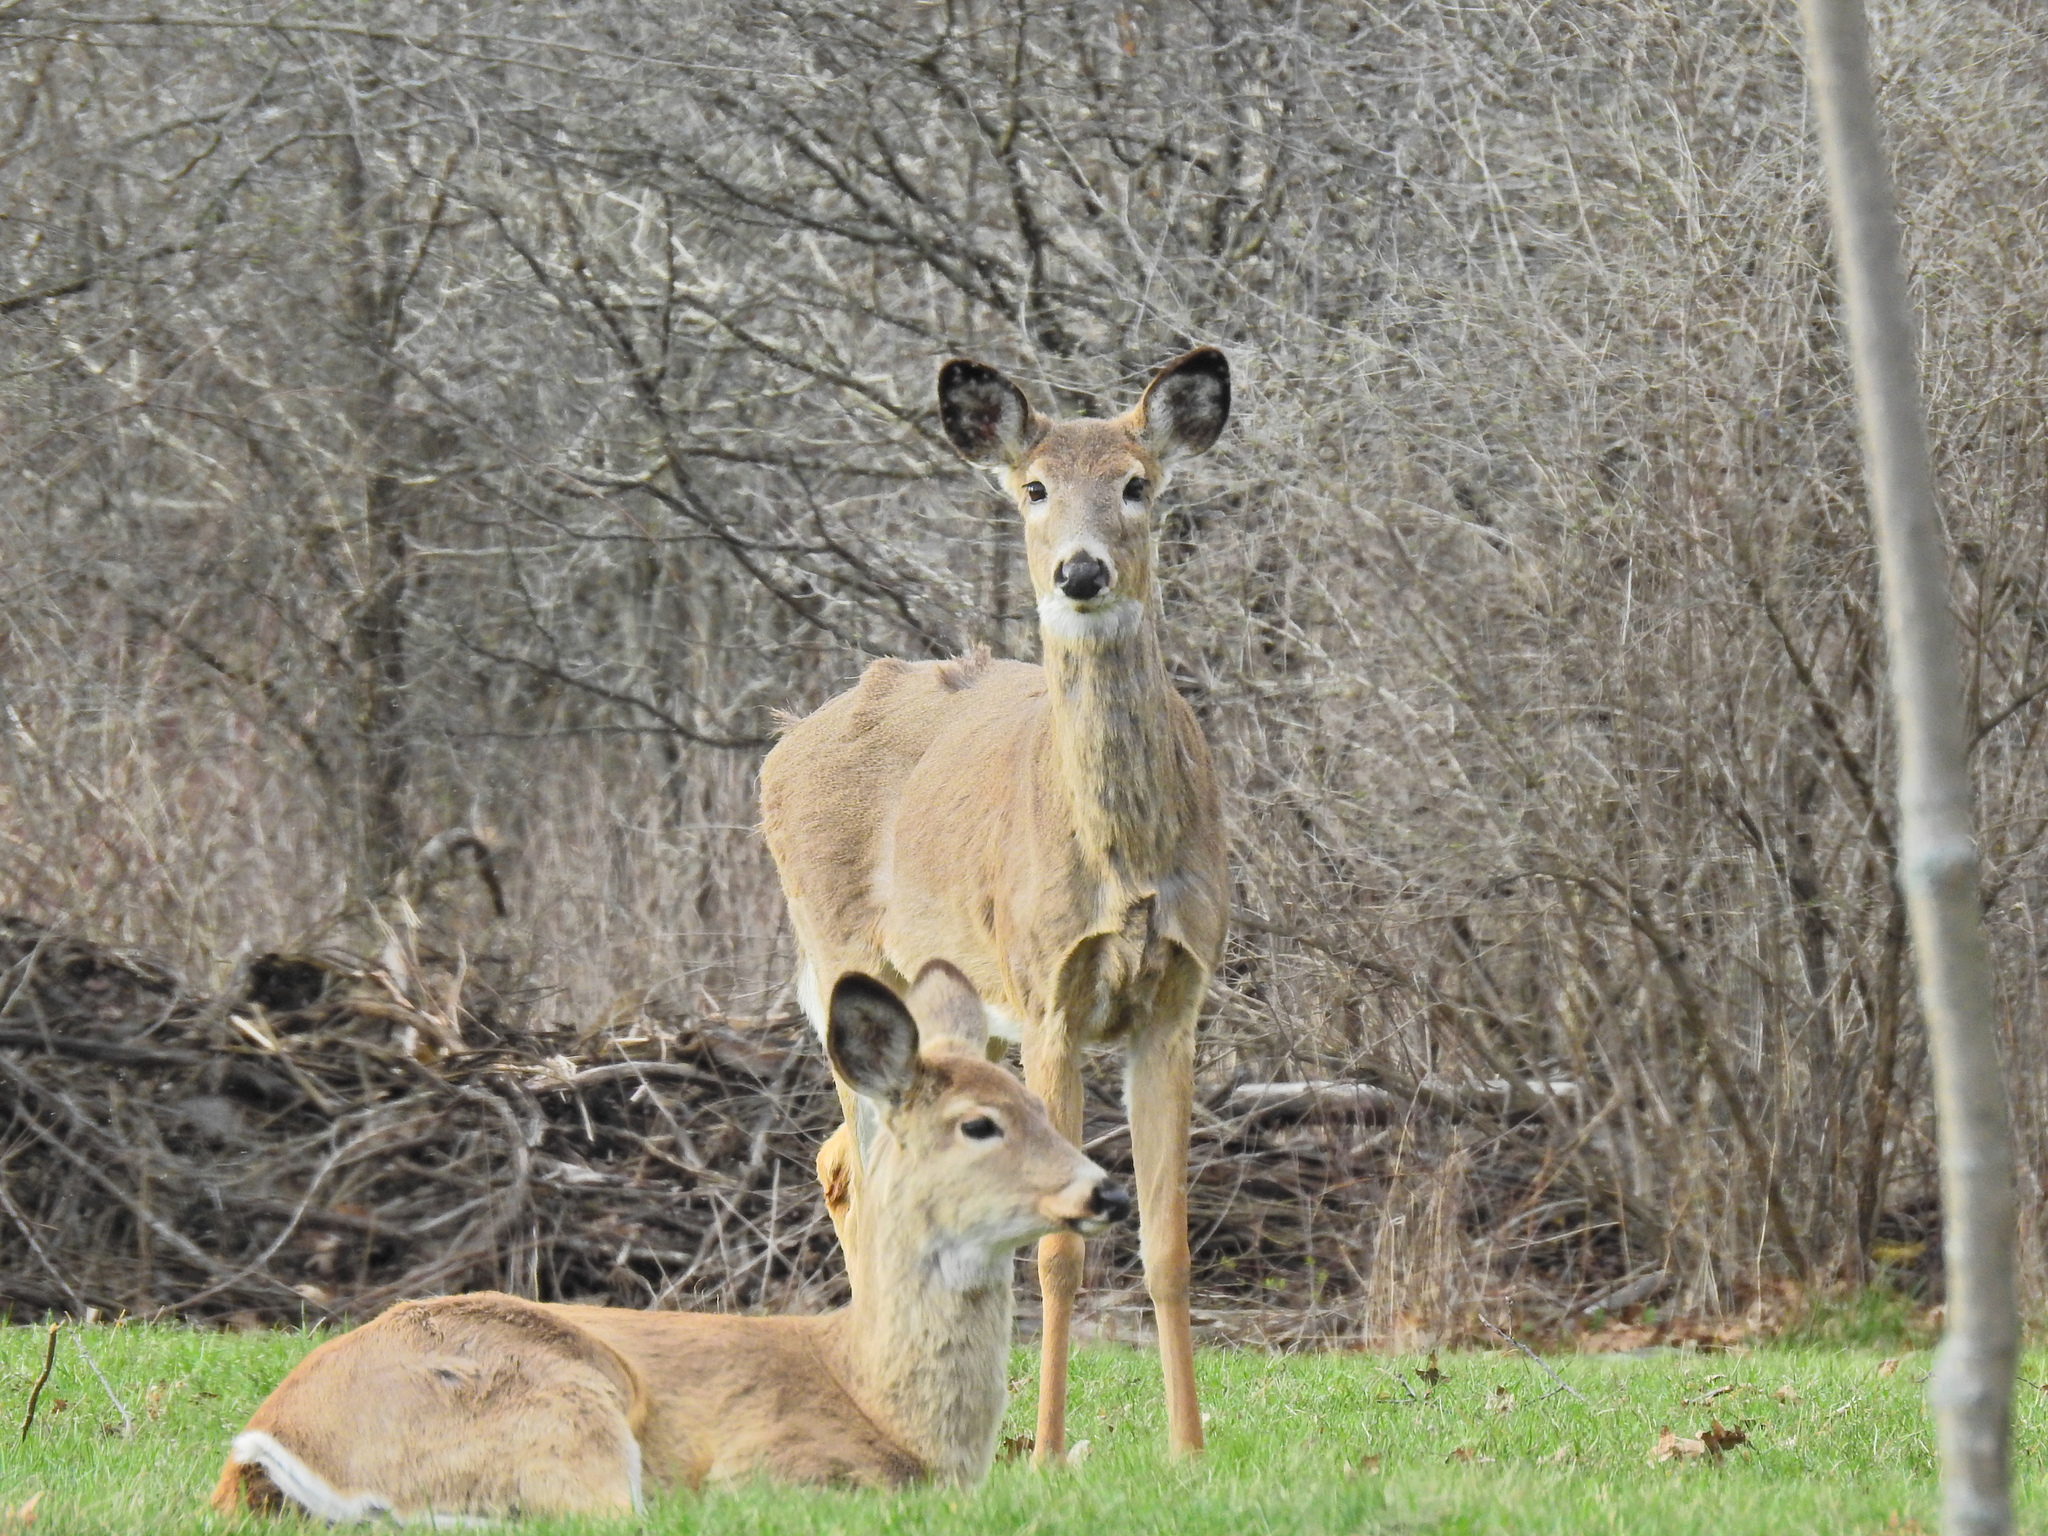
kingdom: Animalia
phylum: Chordata
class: Mammalia
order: Artiodactyla
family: Cervidae
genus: Odocoileus
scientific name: Odocoileus virginianus
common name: White-tailed deer
